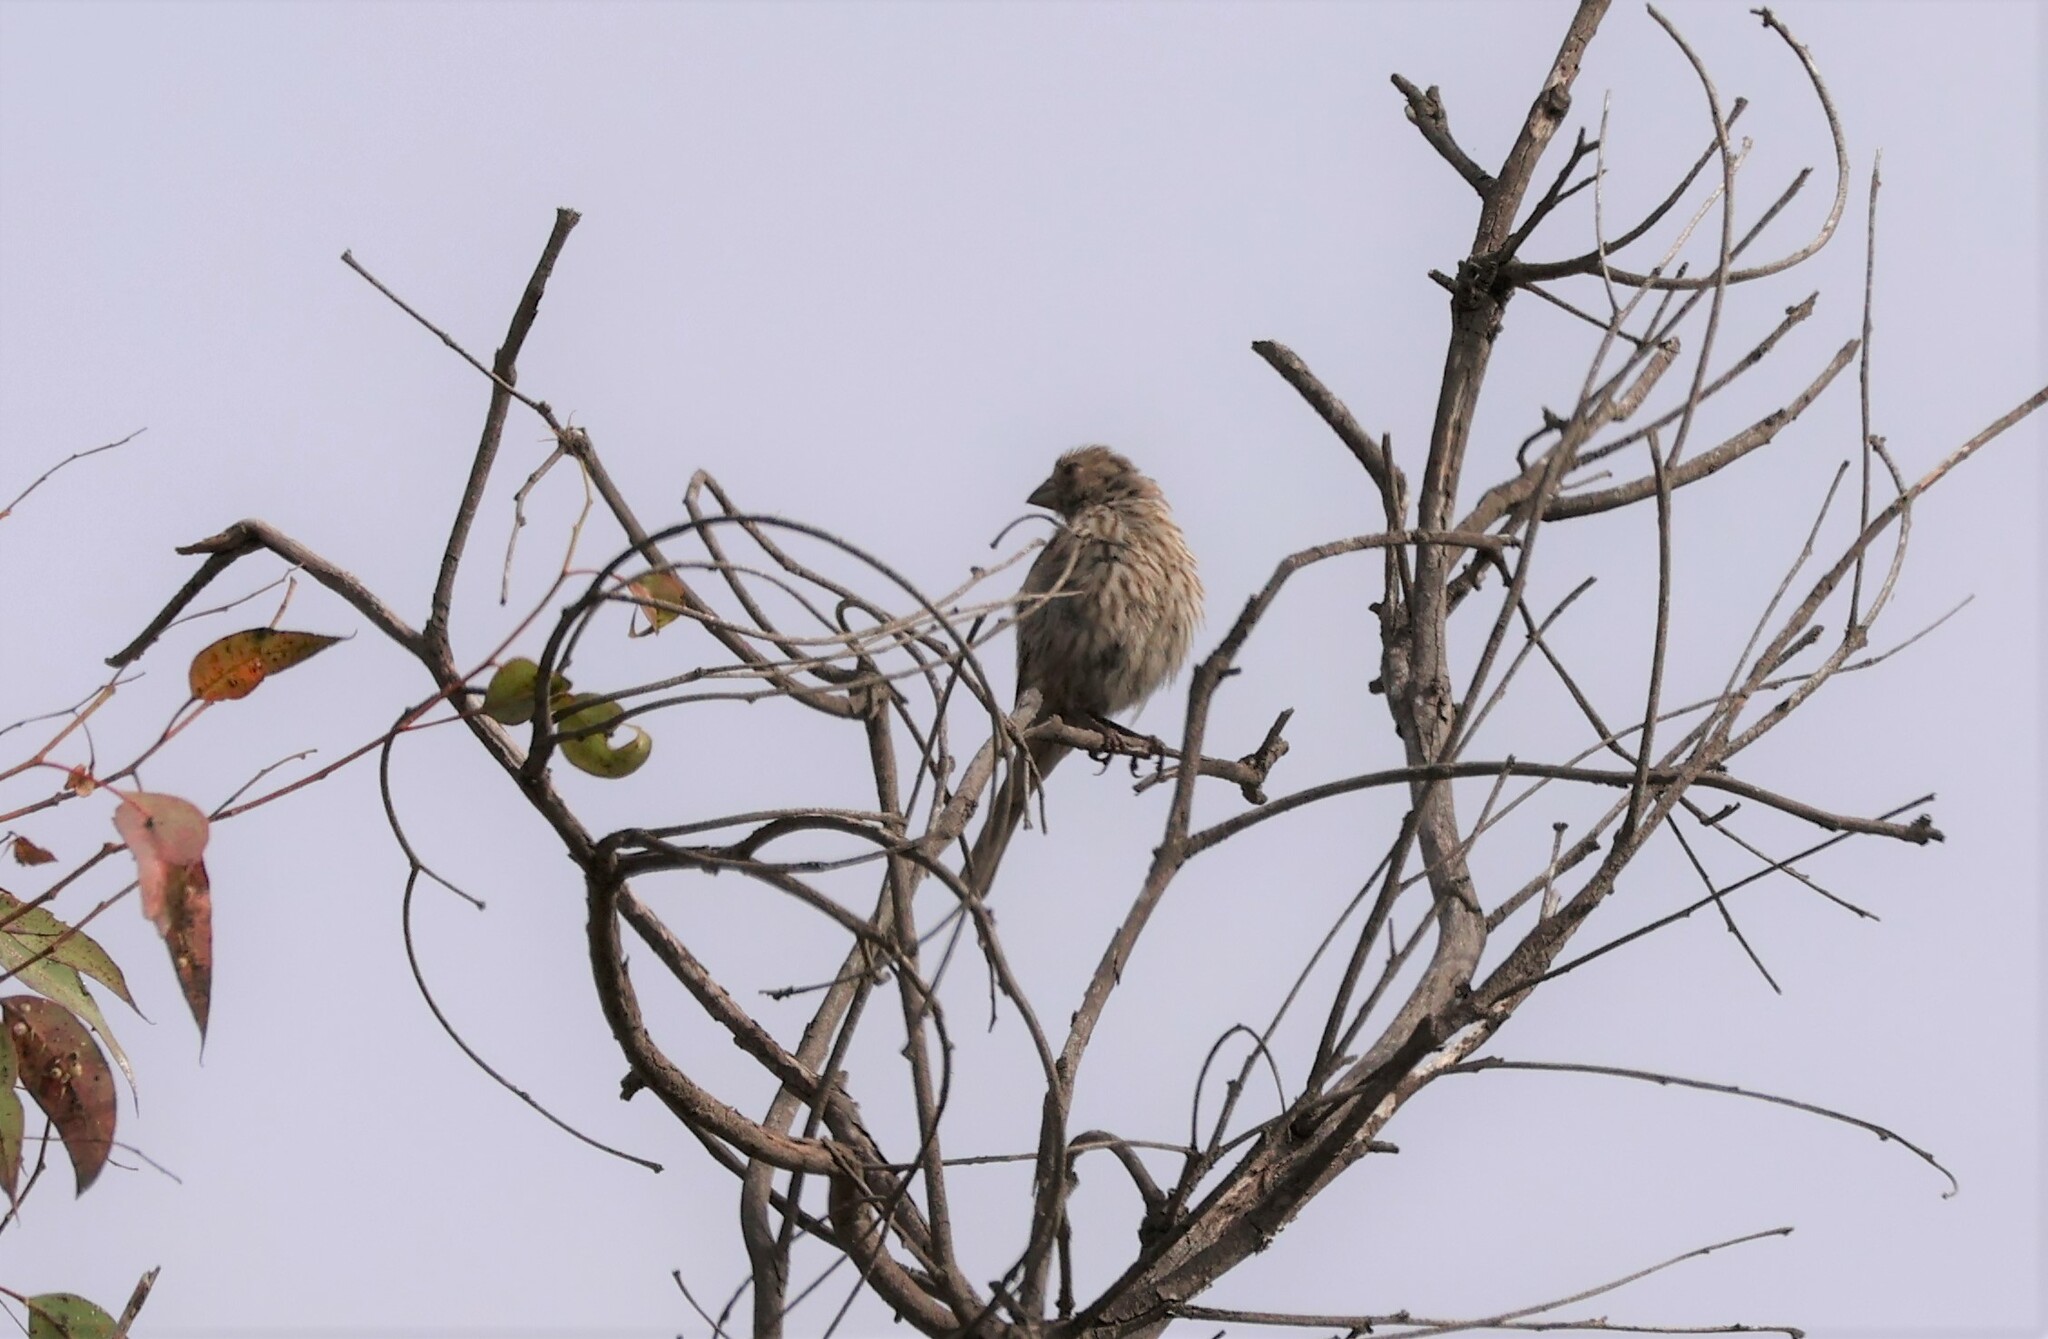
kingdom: Animalia
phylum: Chordata
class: Aves
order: Passeriformes
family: Fringillidae
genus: Haemorhous
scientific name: Haemorhous mexicanus
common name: House finch
